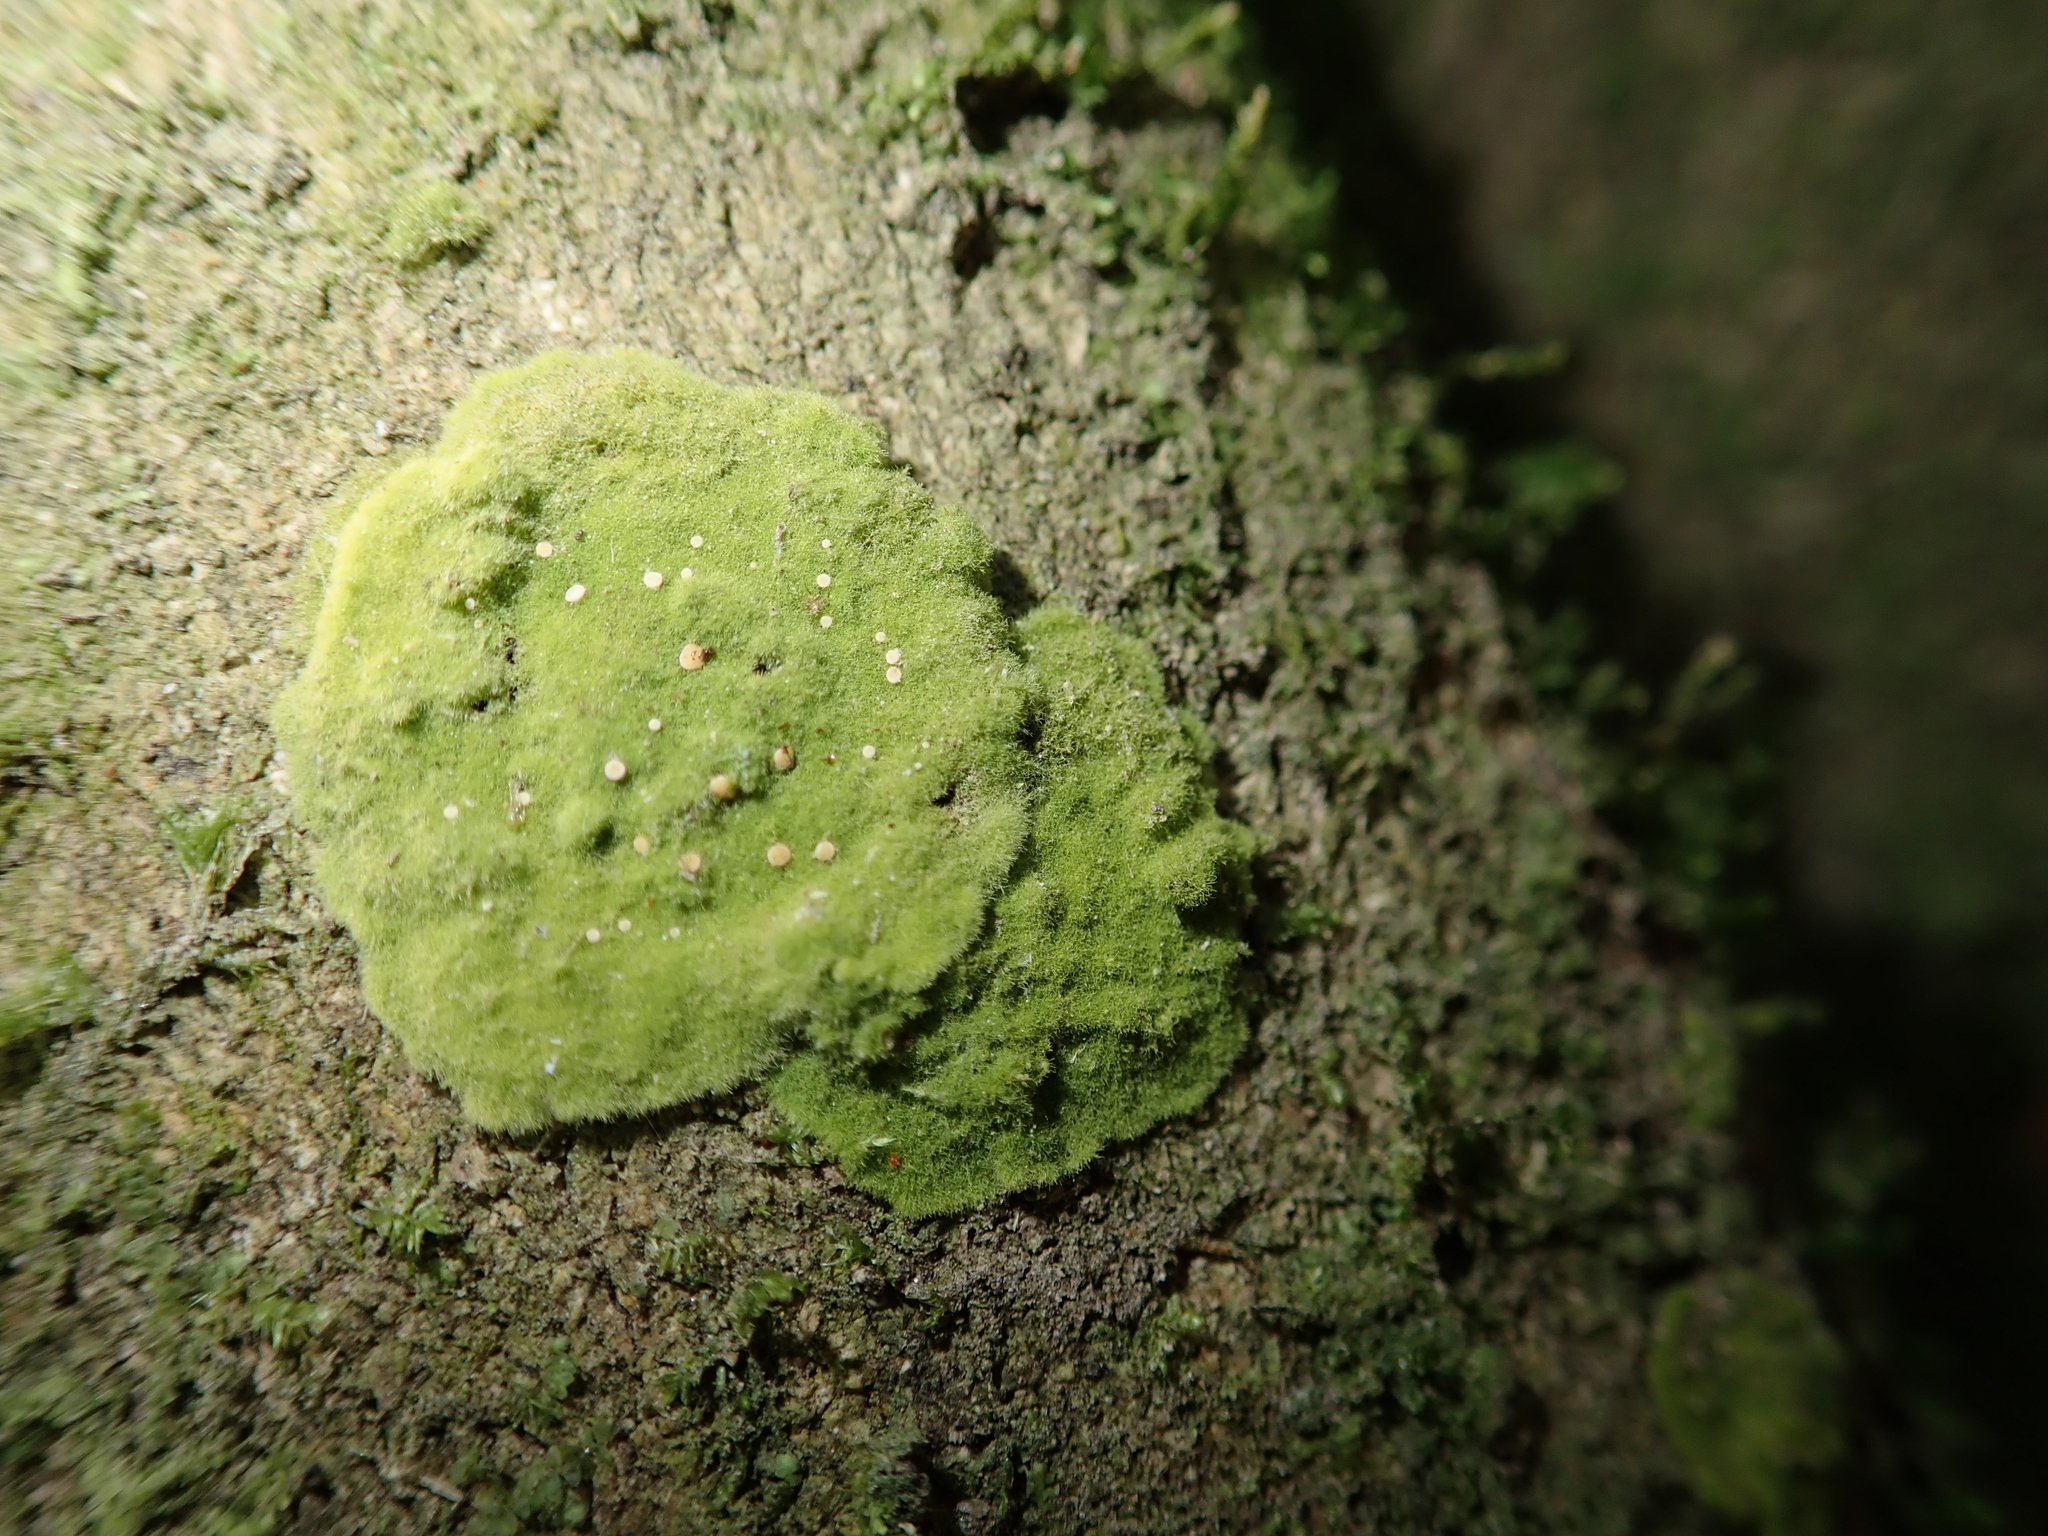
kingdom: Fungi
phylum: Ascomycota
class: Lecanoromycetes
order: Ostropales
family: Coenogoniaceae
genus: Coenogonium
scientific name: Coenogonium implexum
